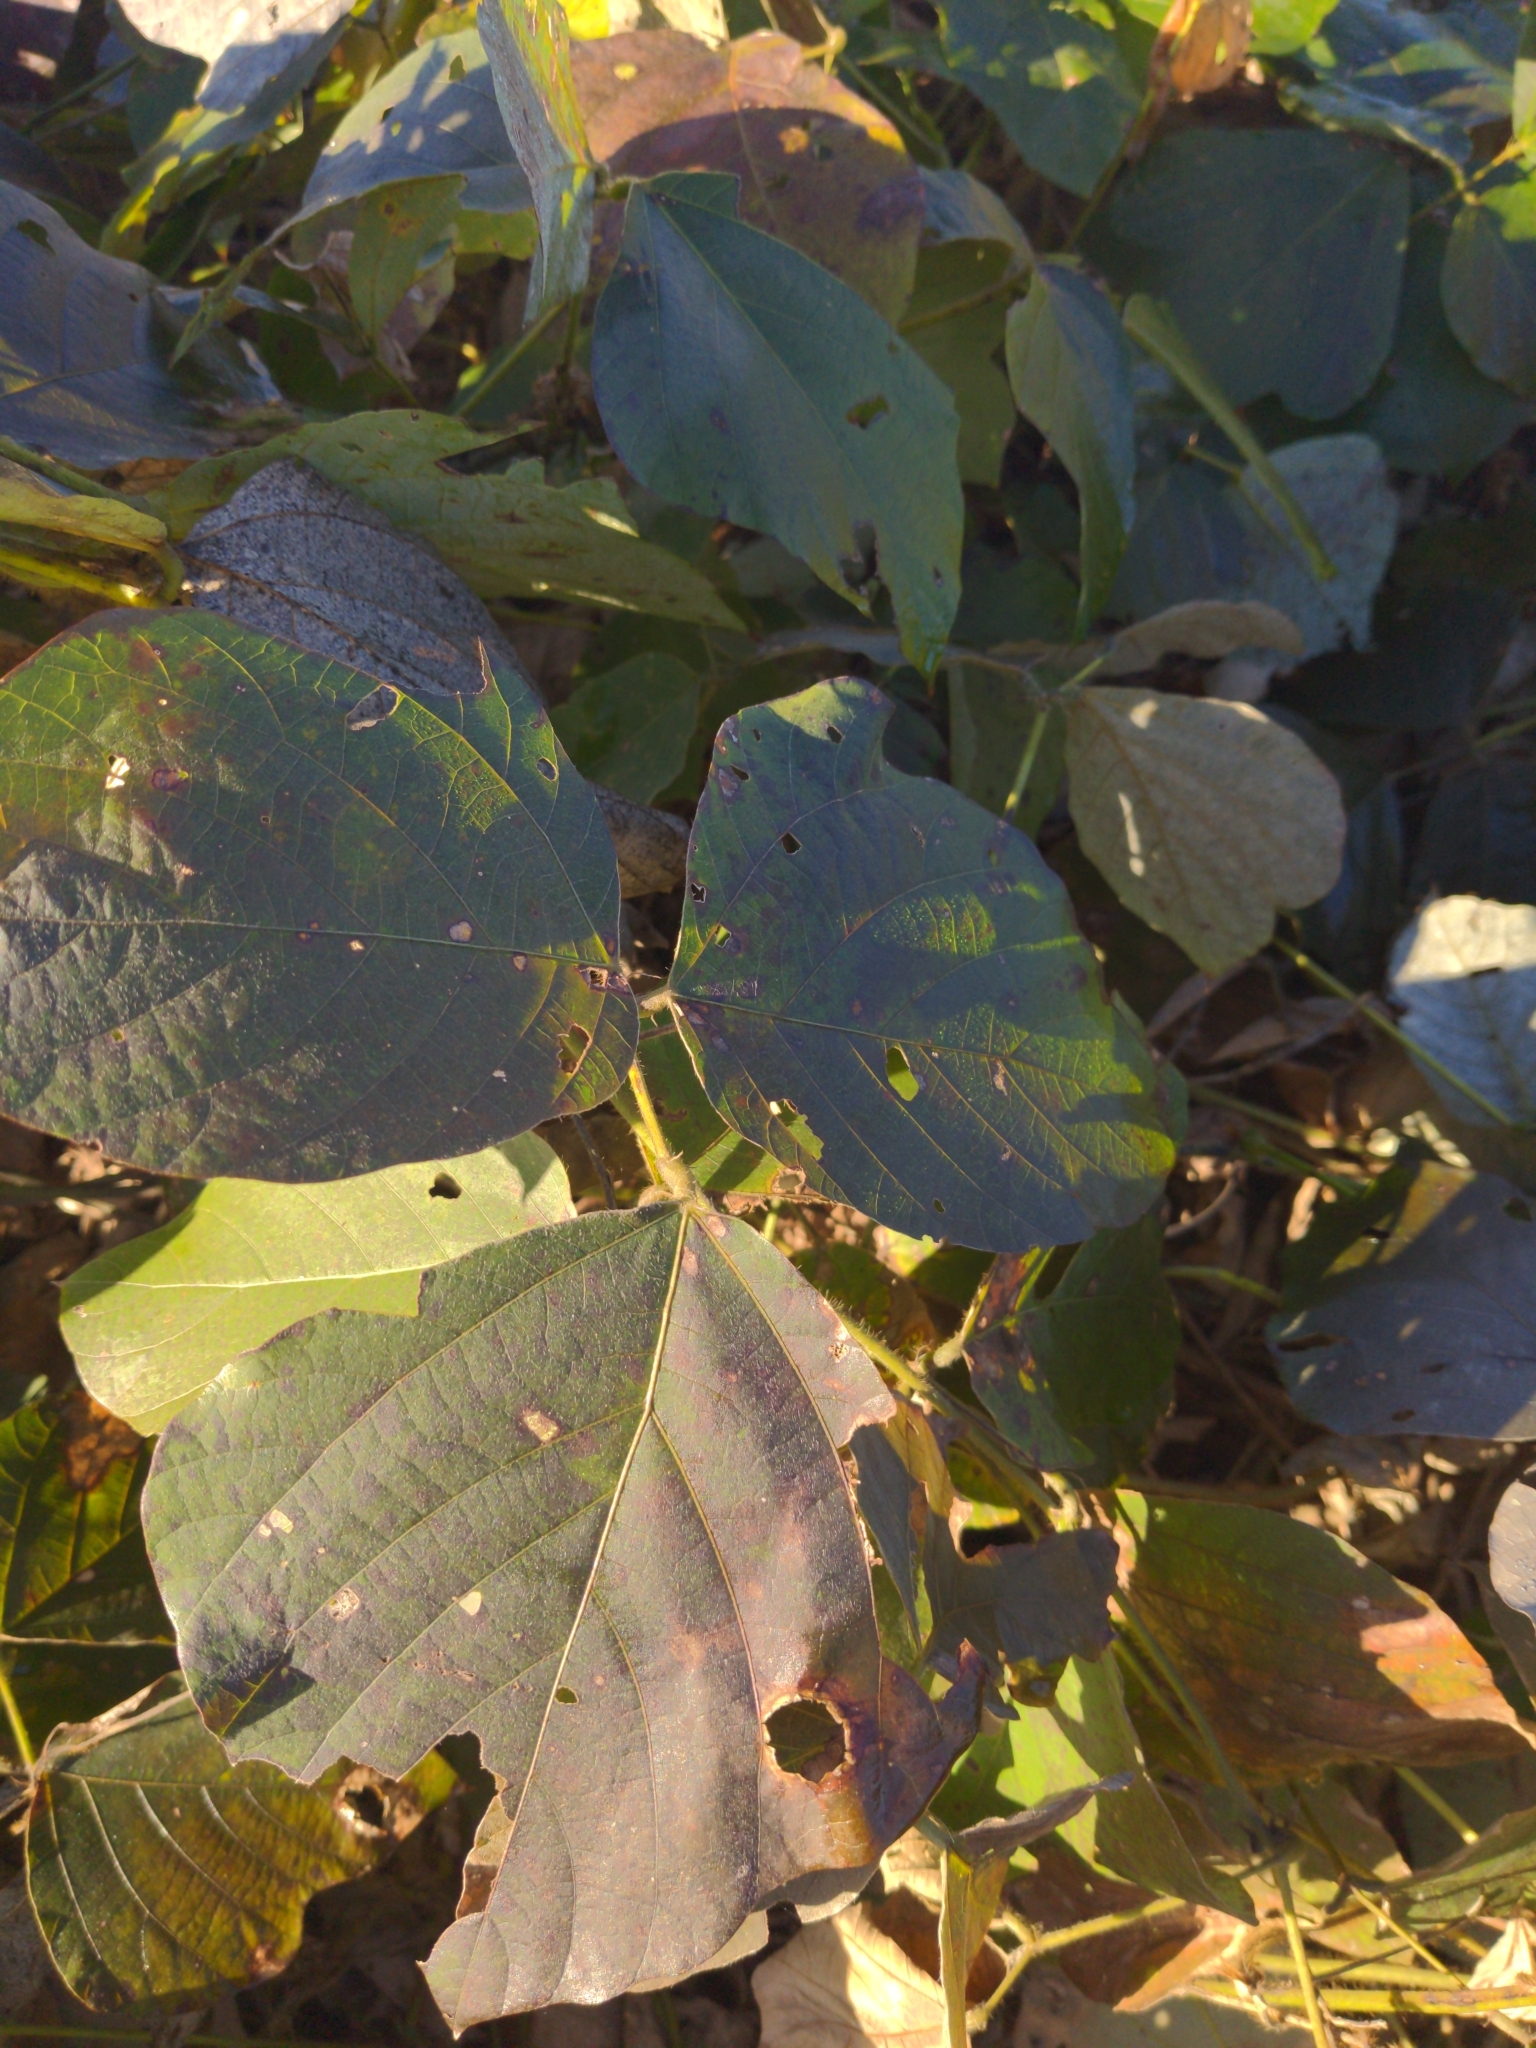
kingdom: Plantae
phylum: Tracheophyta
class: Magnoliopsida
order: Fabales
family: Fabaceae
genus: Pueraria
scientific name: Pueraria montana
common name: Kudzu
